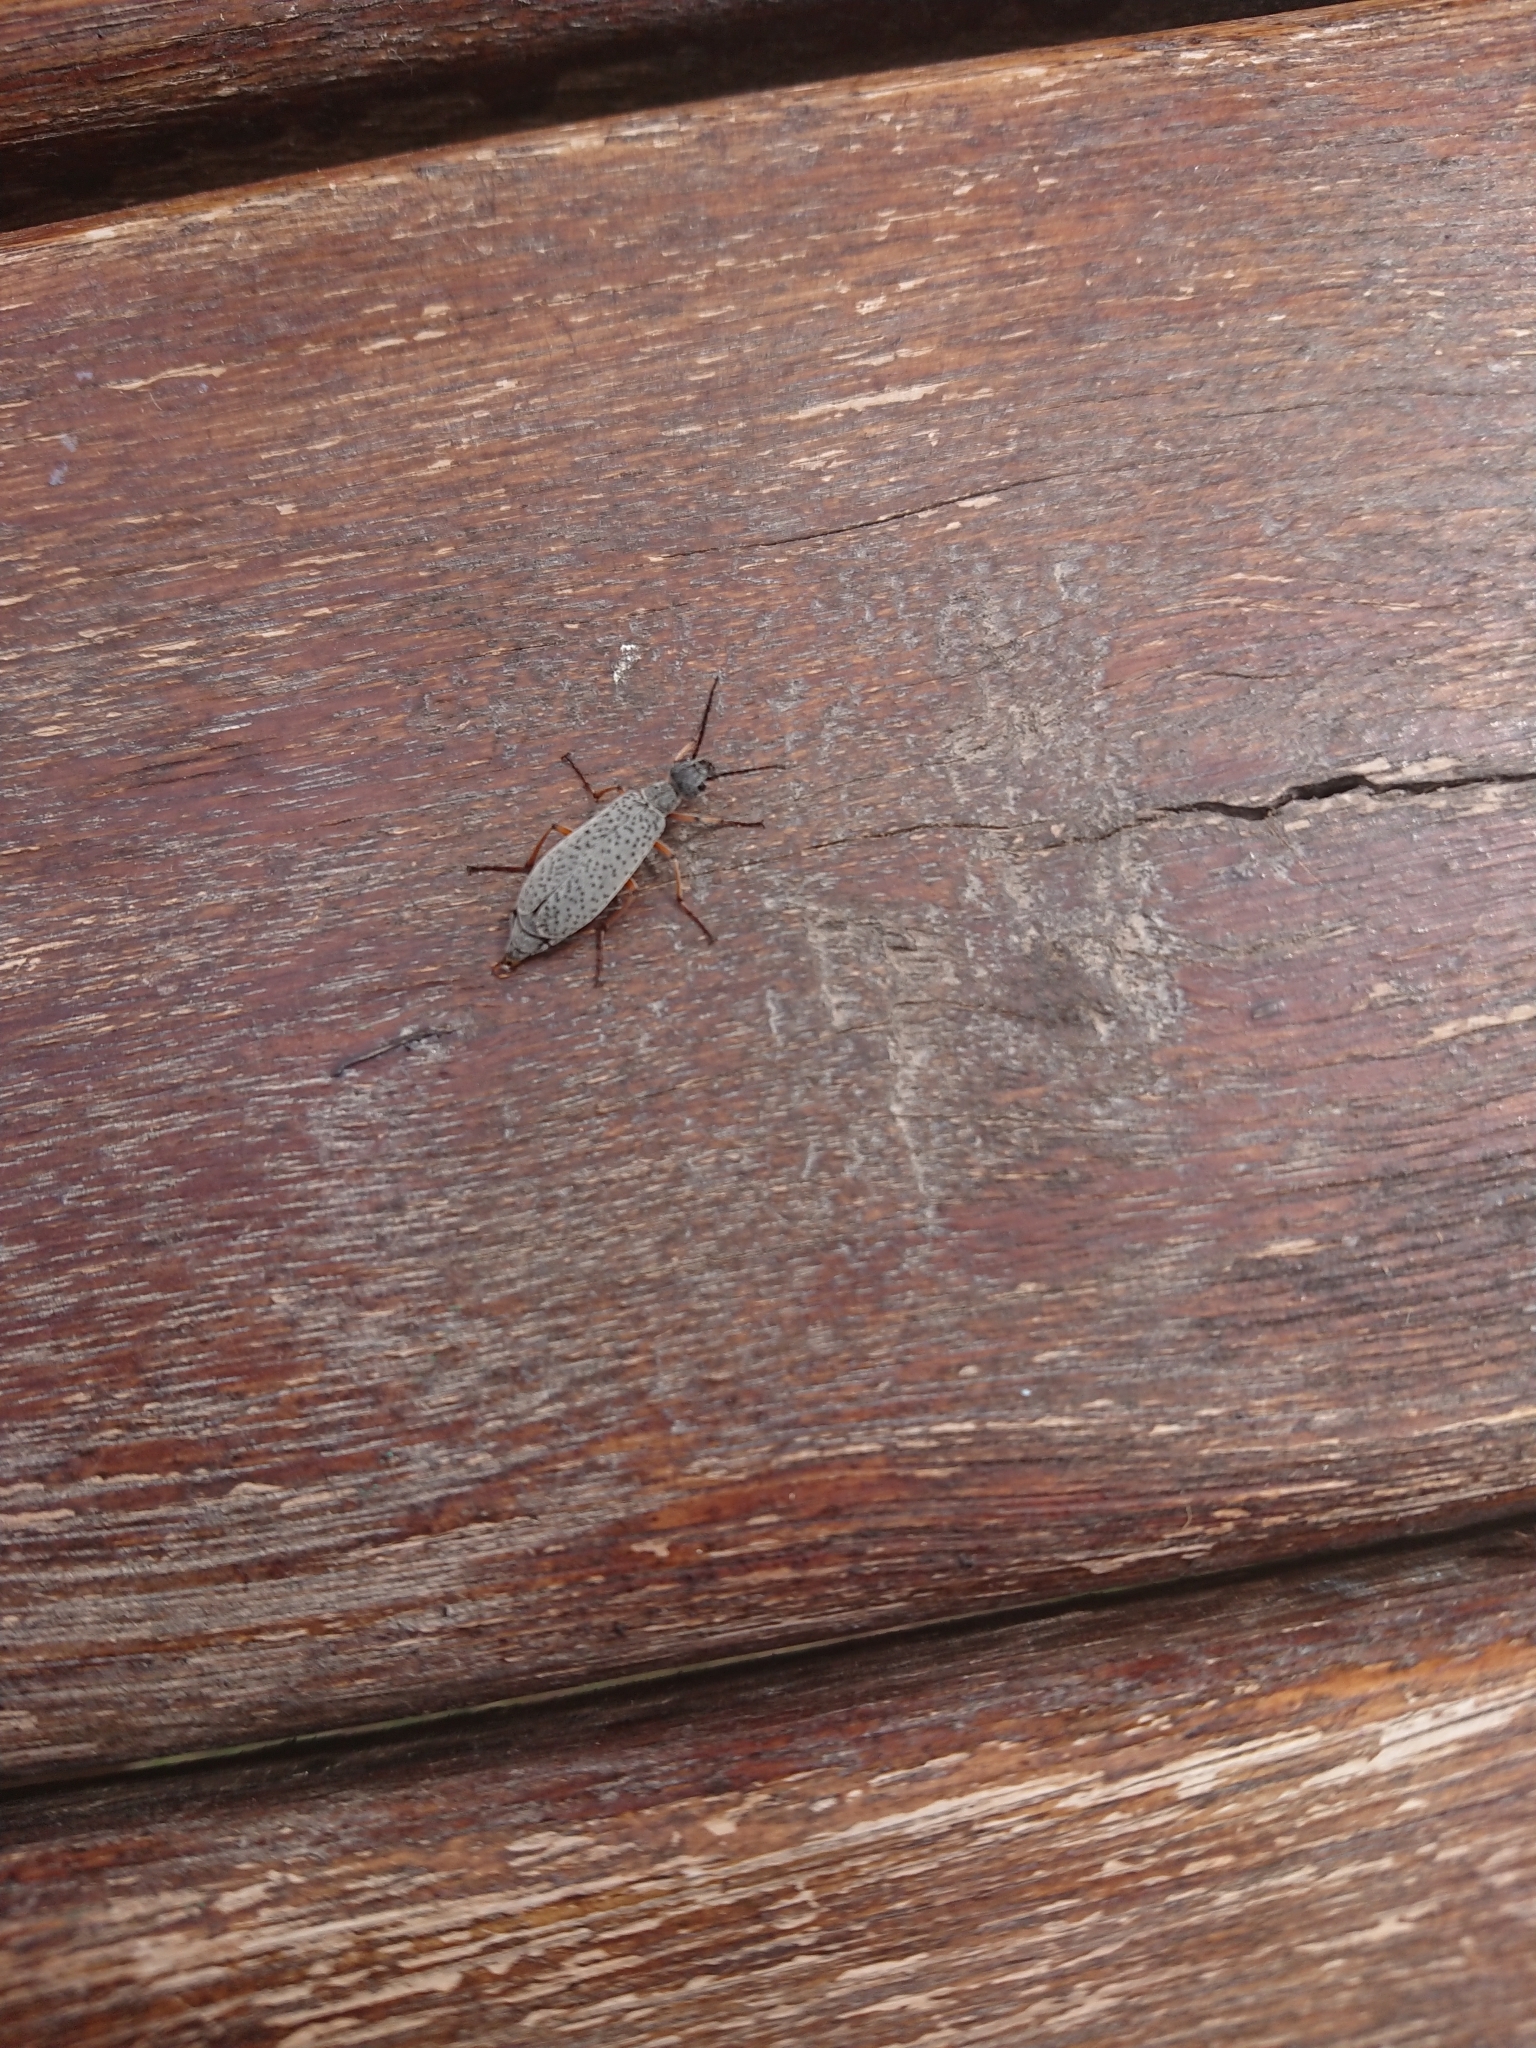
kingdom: Animalia
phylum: Arthropoda
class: Insecta
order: Coleoptera
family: Meloidae
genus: Epicauta
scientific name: Epicauta
